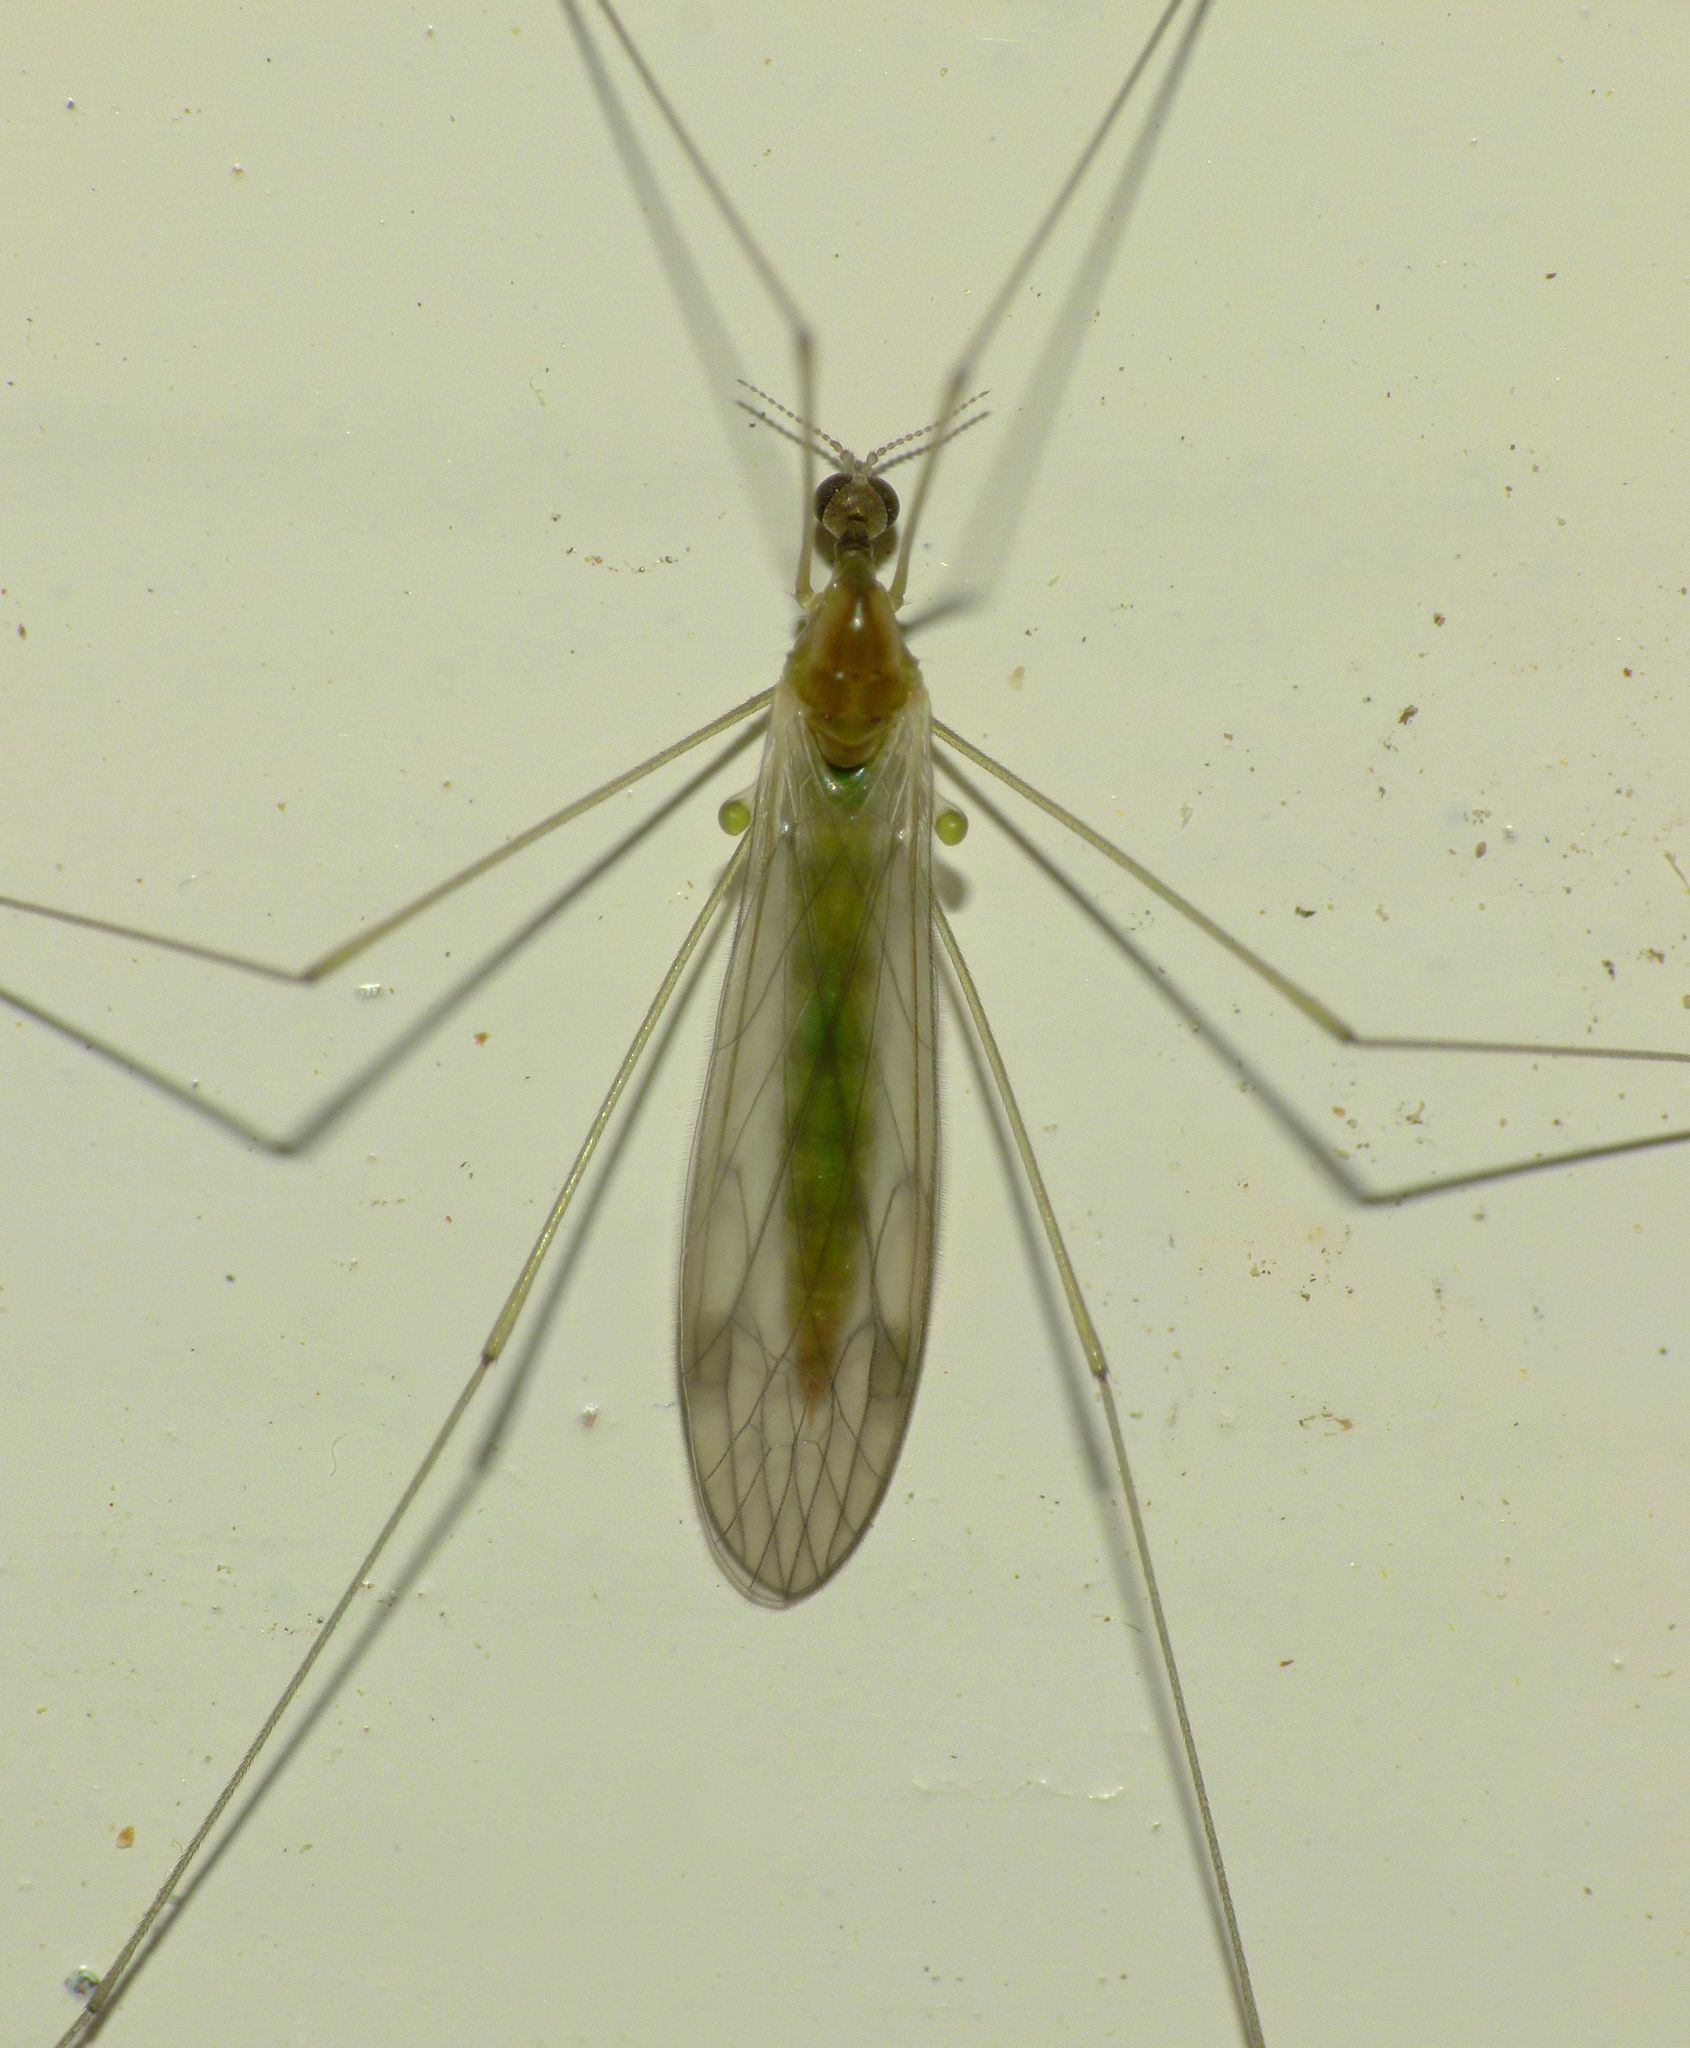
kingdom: Animalia
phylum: Arthropoda
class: Insecta
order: Diptera
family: Limoniidae
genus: Dicranomyia
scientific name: Dicranomyia otagensis
